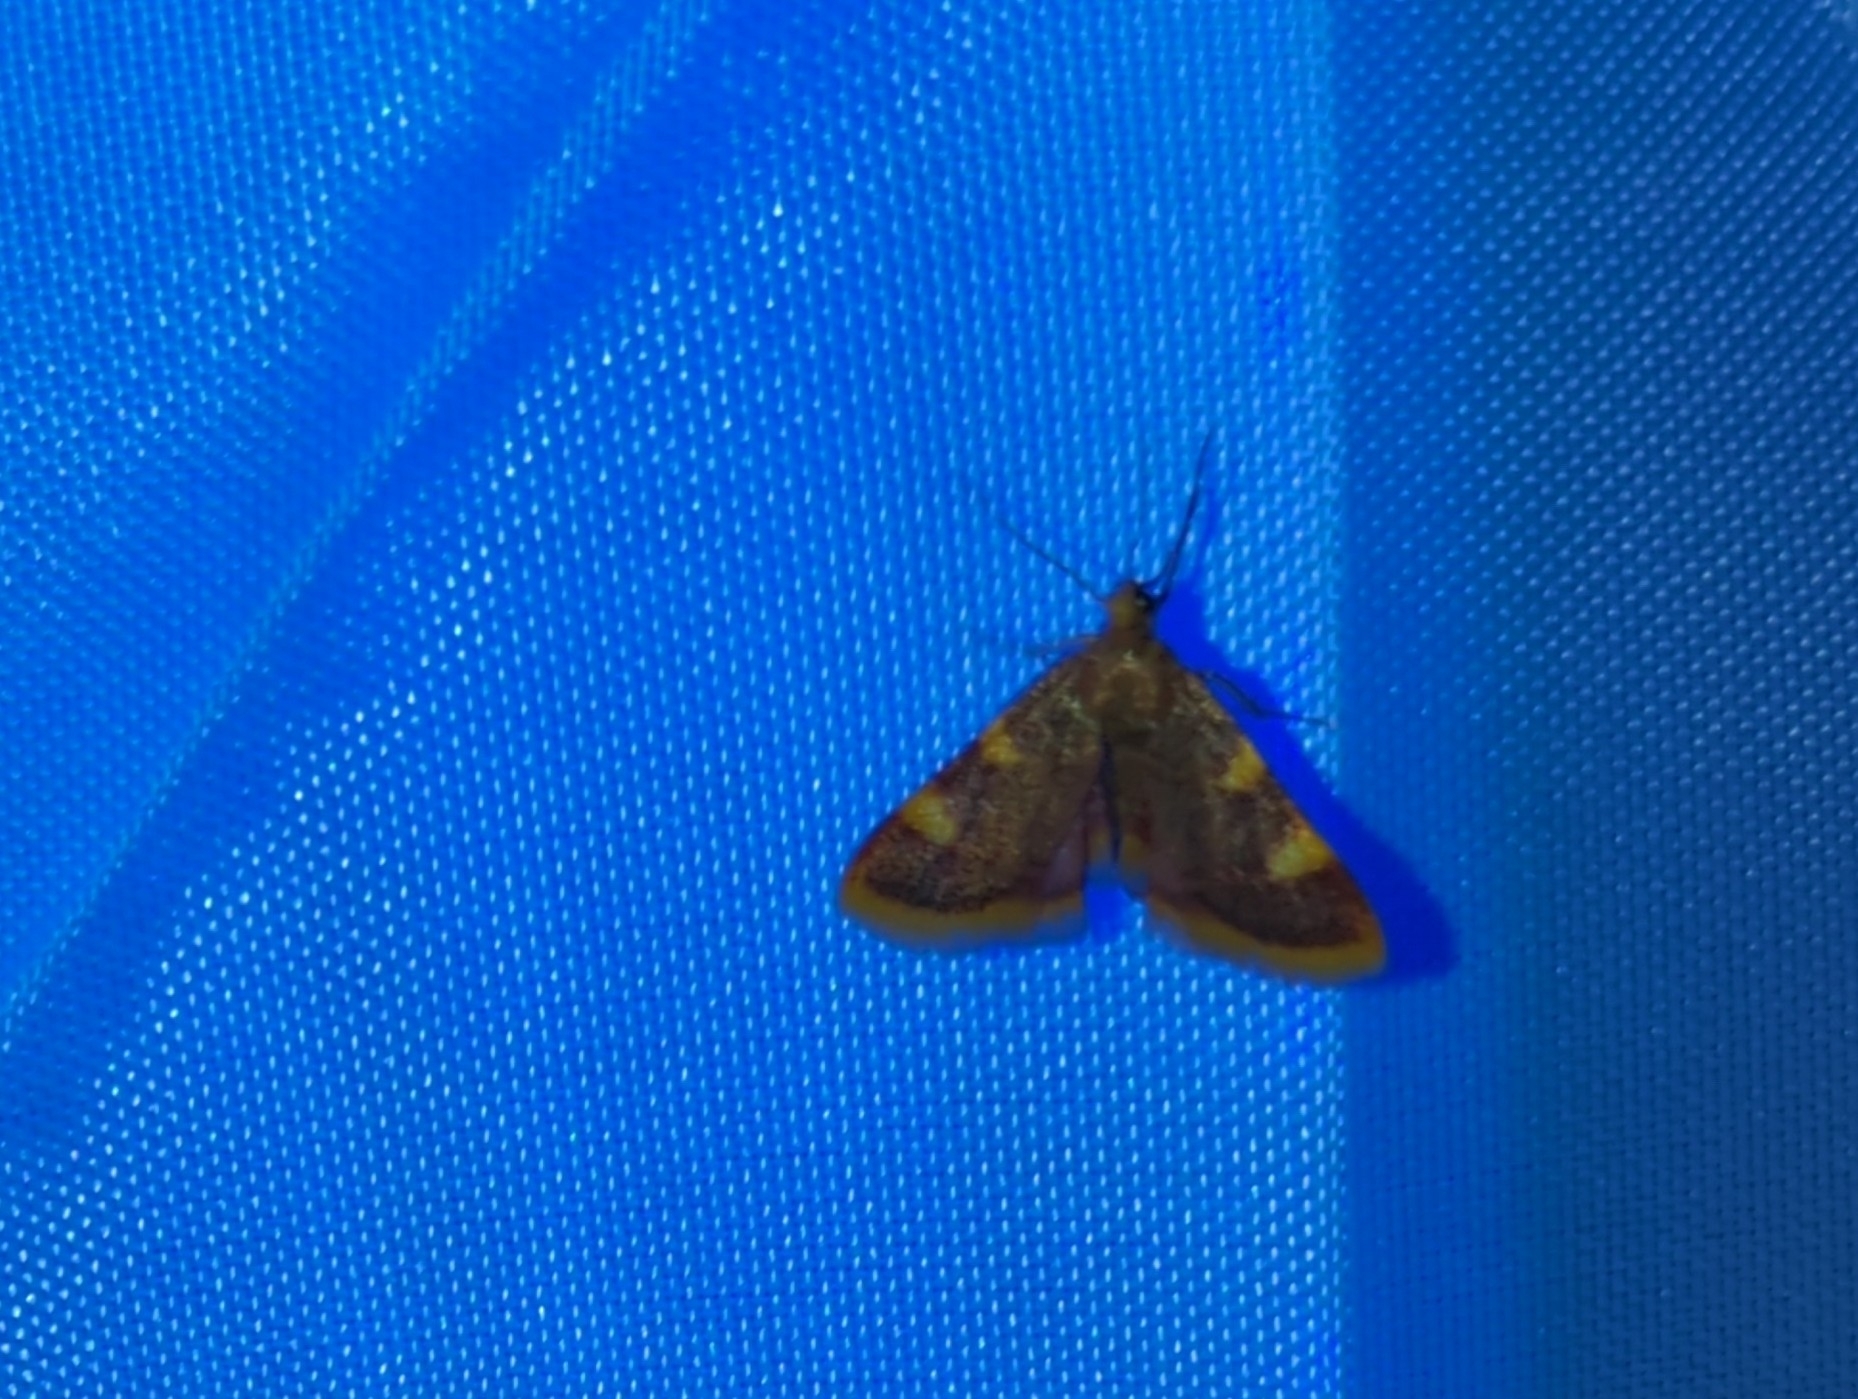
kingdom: Animalia
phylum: Arthropoda
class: Insecta
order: Lepidoptera
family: Pyralidae
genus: Hypsopygia
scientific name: Hypsopygia costalis
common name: Gold triangle
